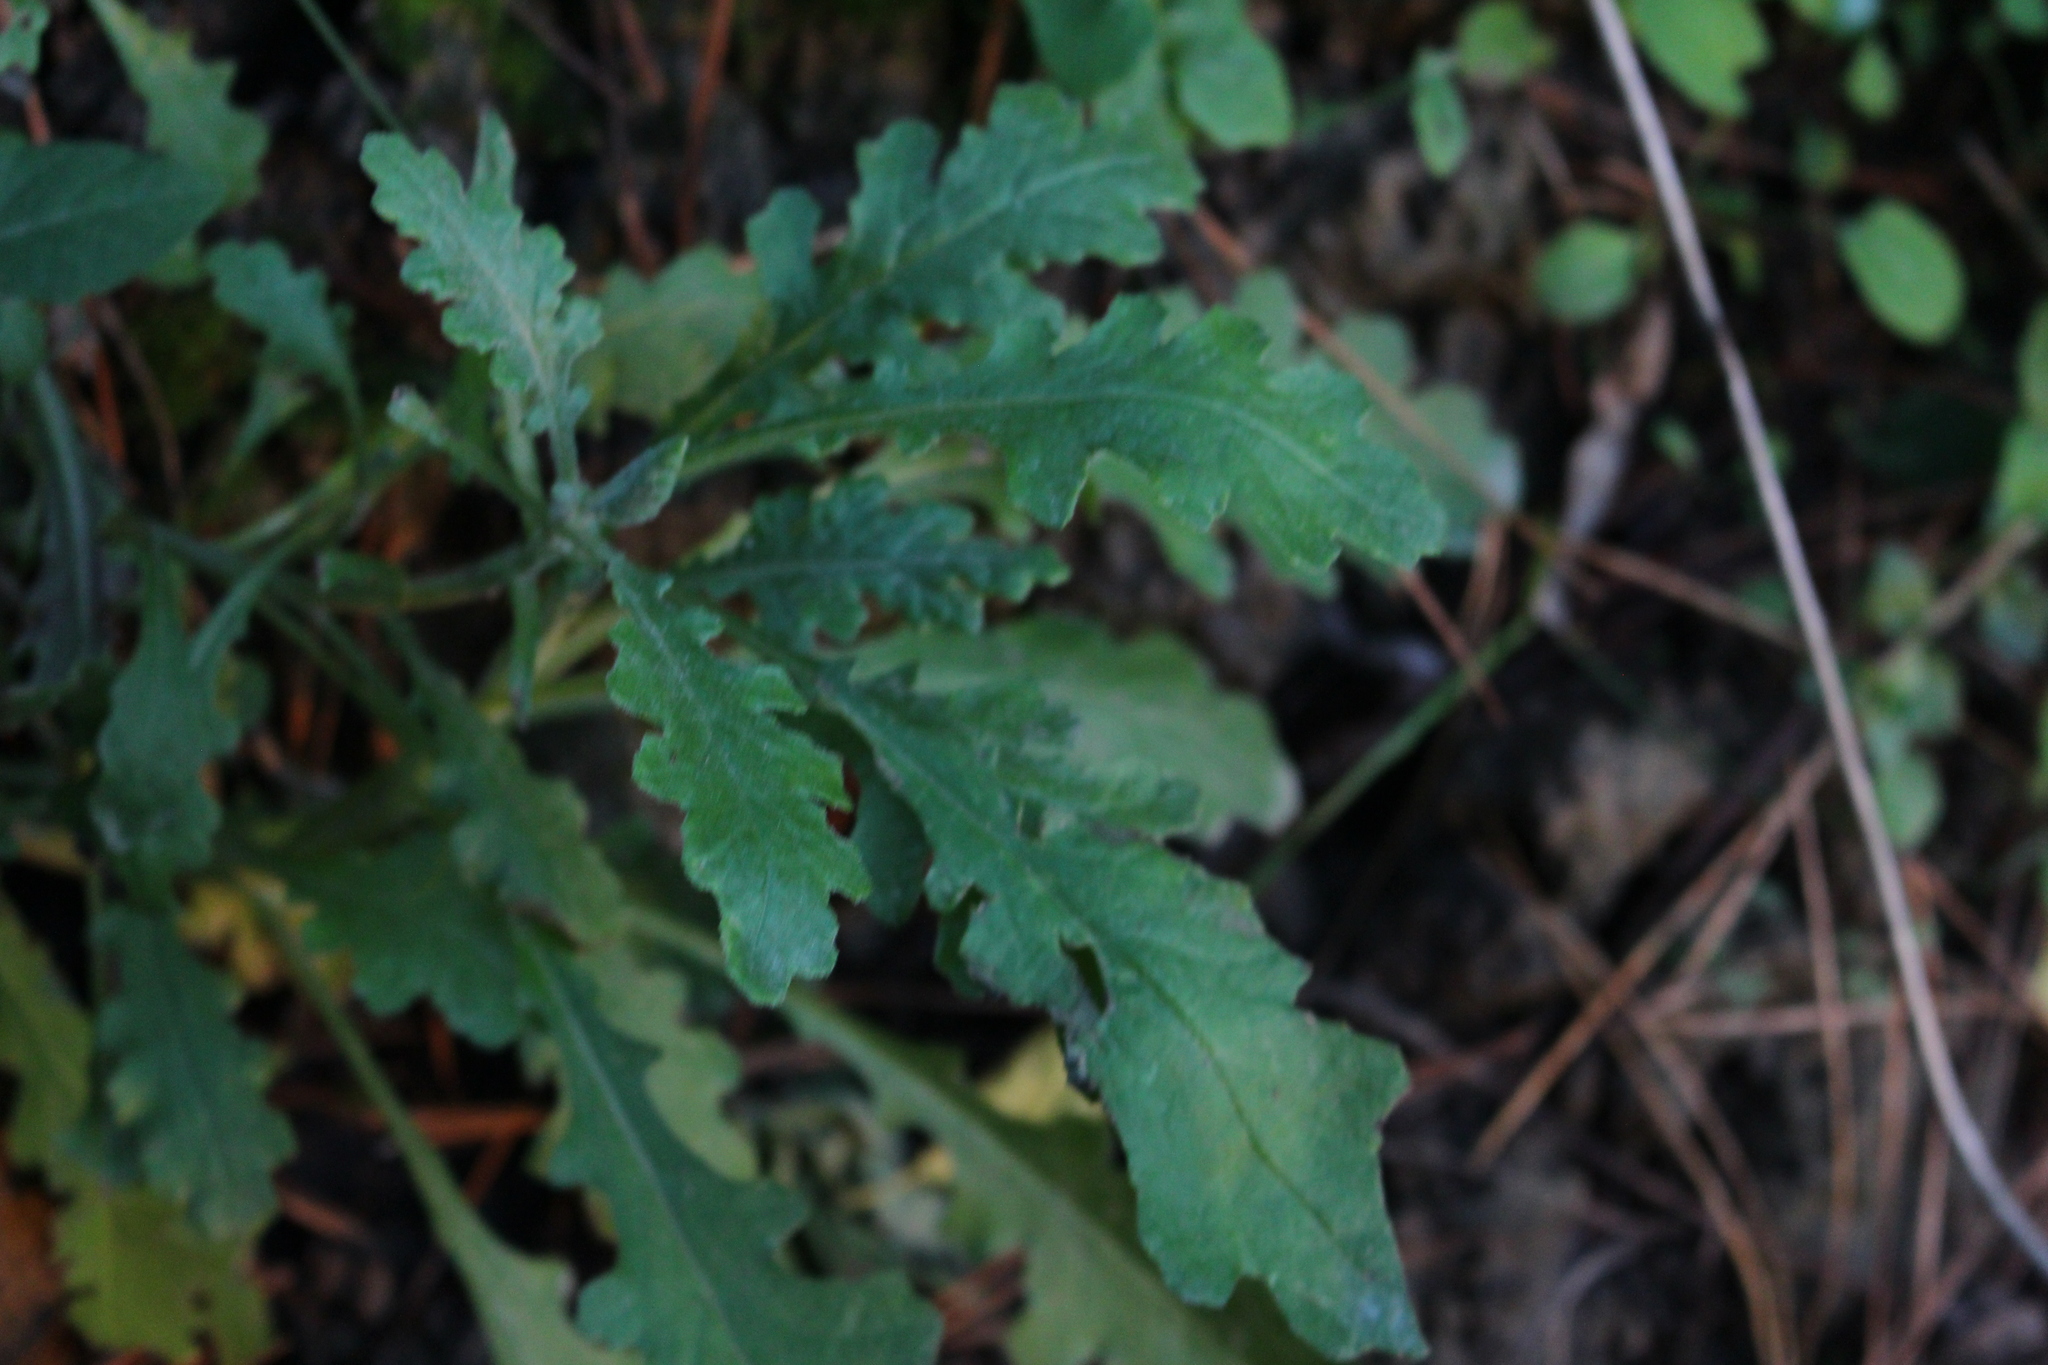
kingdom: Plantae
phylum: Tracheophyta
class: Magnoliopsida
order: Asterales
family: Asteraceae
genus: Senecio
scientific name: Senecio glomeratus
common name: Cutleaf burnweed
